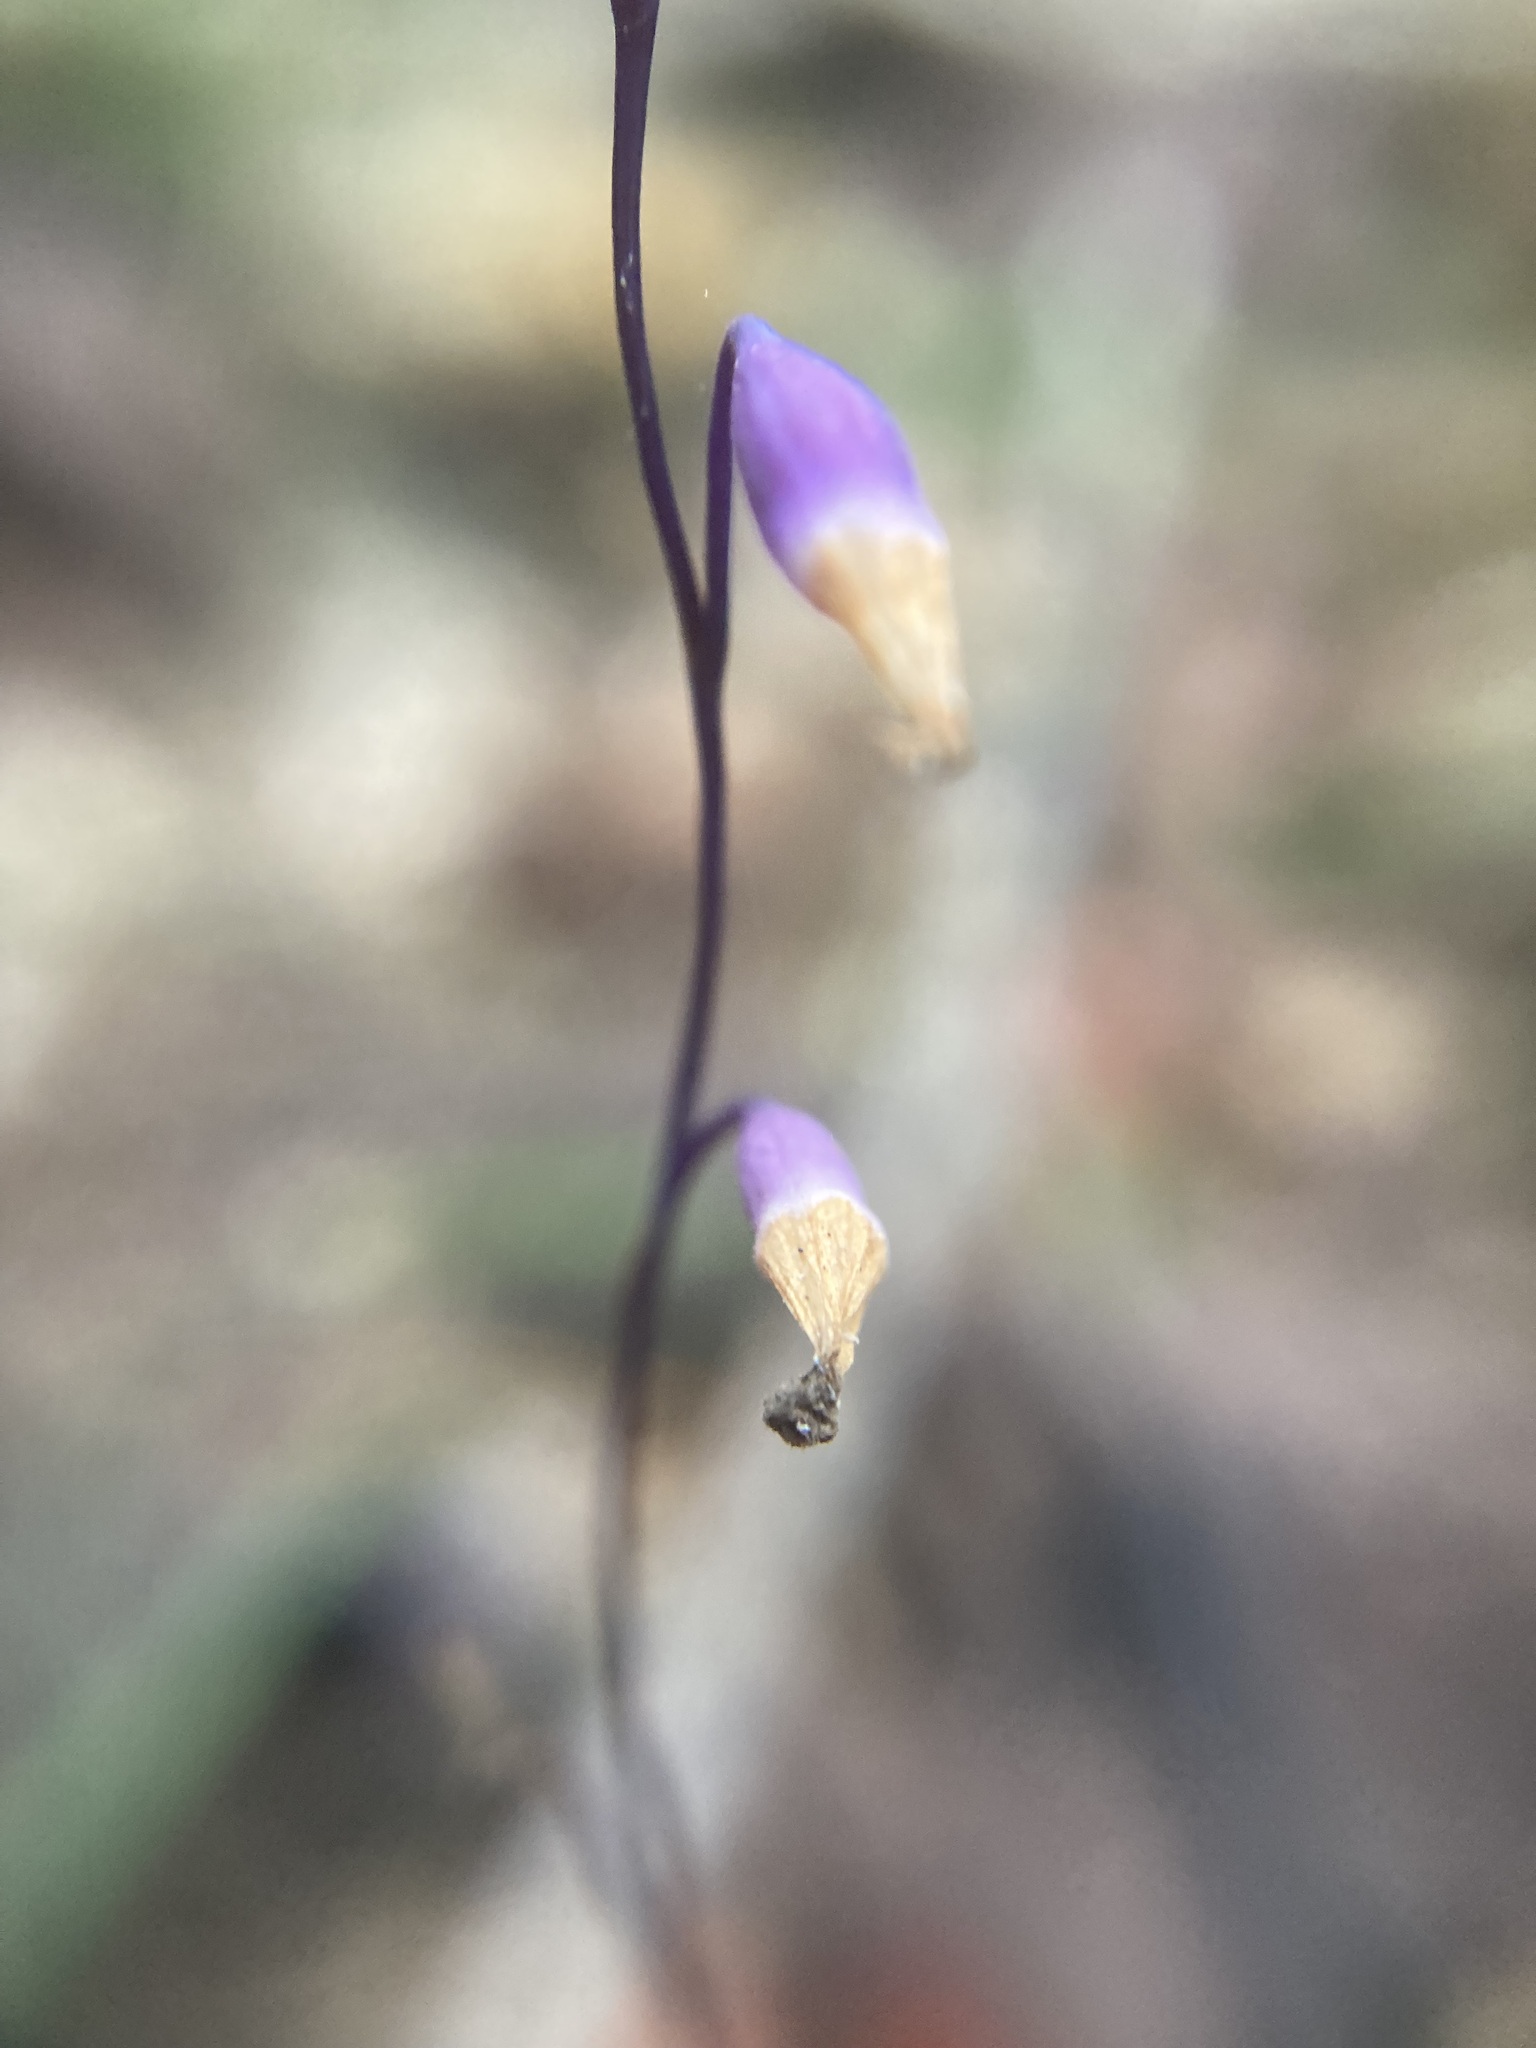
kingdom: Plantae
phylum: Tracheophyta
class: Liliopsida
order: Dioscoreales
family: Burmanniaceae
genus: Apteria
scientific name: Apteria aphylla
